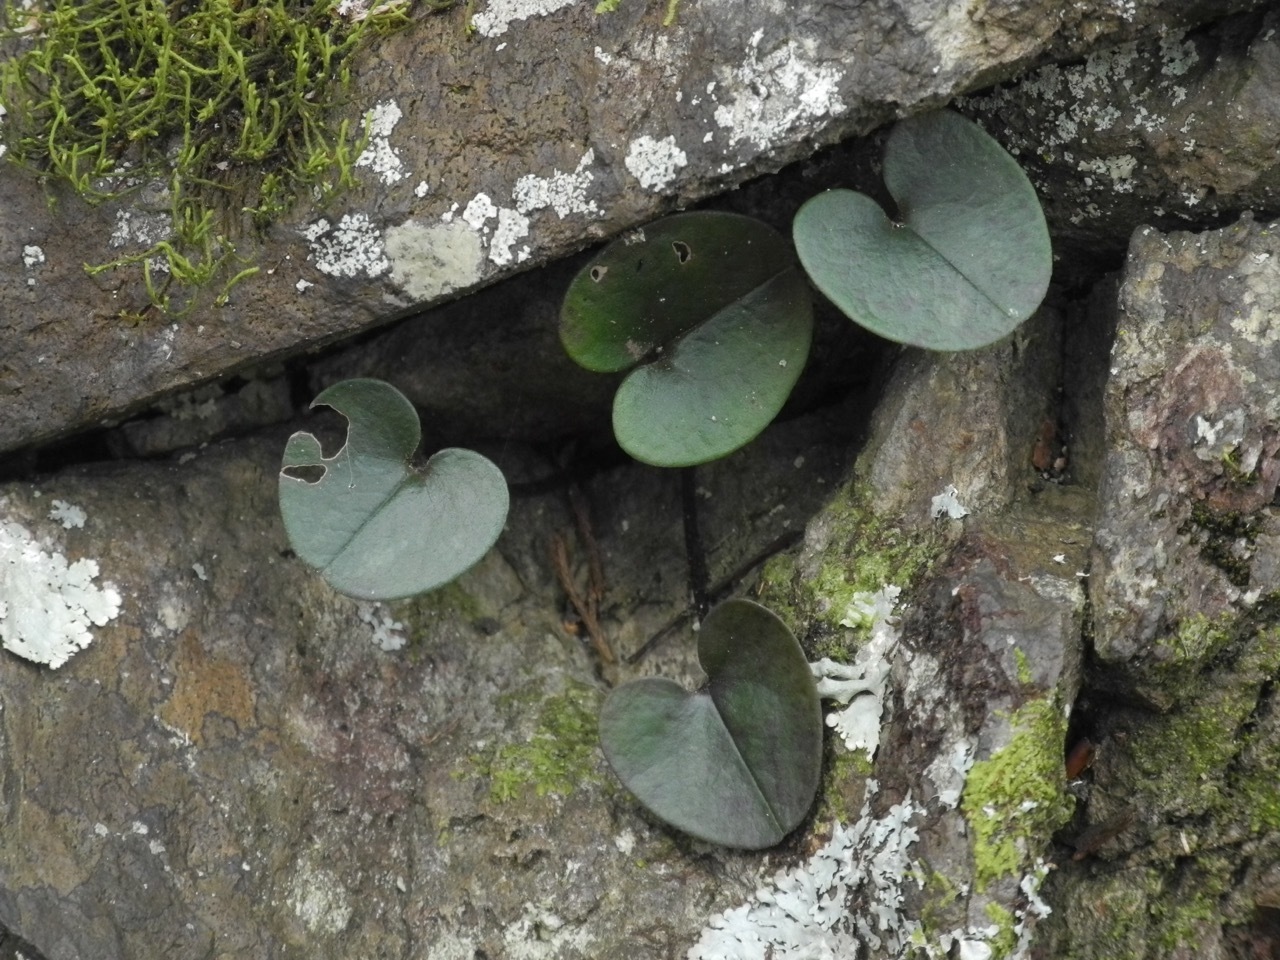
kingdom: Plantae
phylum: Tracheophyta
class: Magnoliopsida
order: Piperales
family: Aristolochiaceae
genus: Hexastylis
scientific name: Hexastylis rhombiformis
